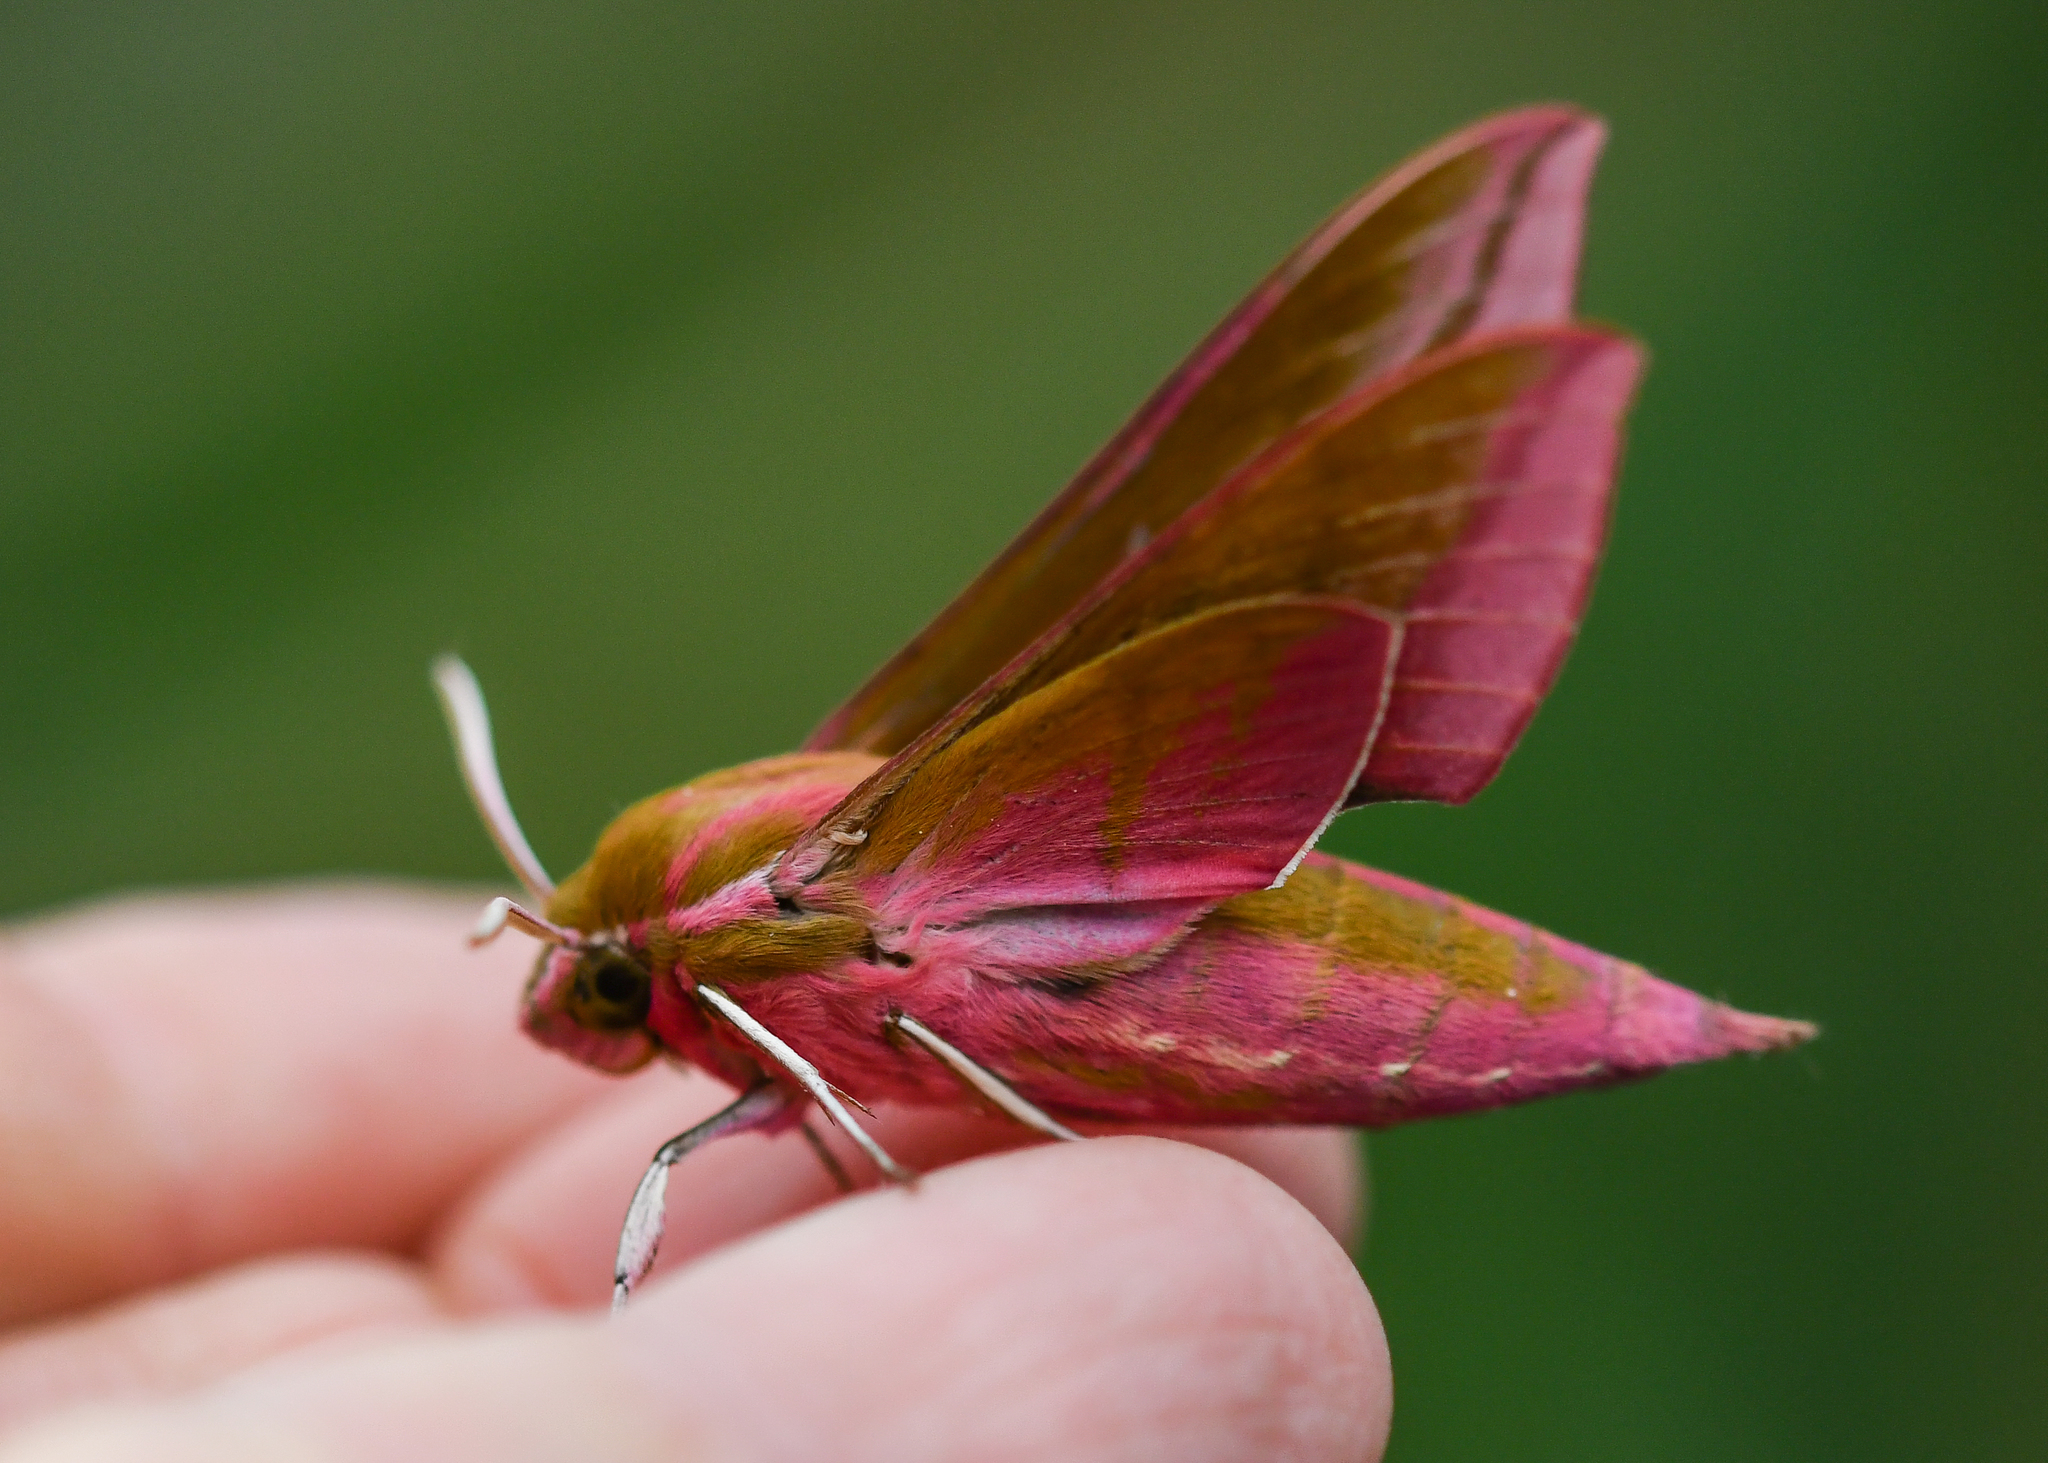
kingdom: Animalia
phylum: Arthropoda
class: Insecta
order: Lepidoptera
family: Sphingidae
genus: Deilephila
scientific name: Deilephila elpenor
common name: Elephant hawk-moth
